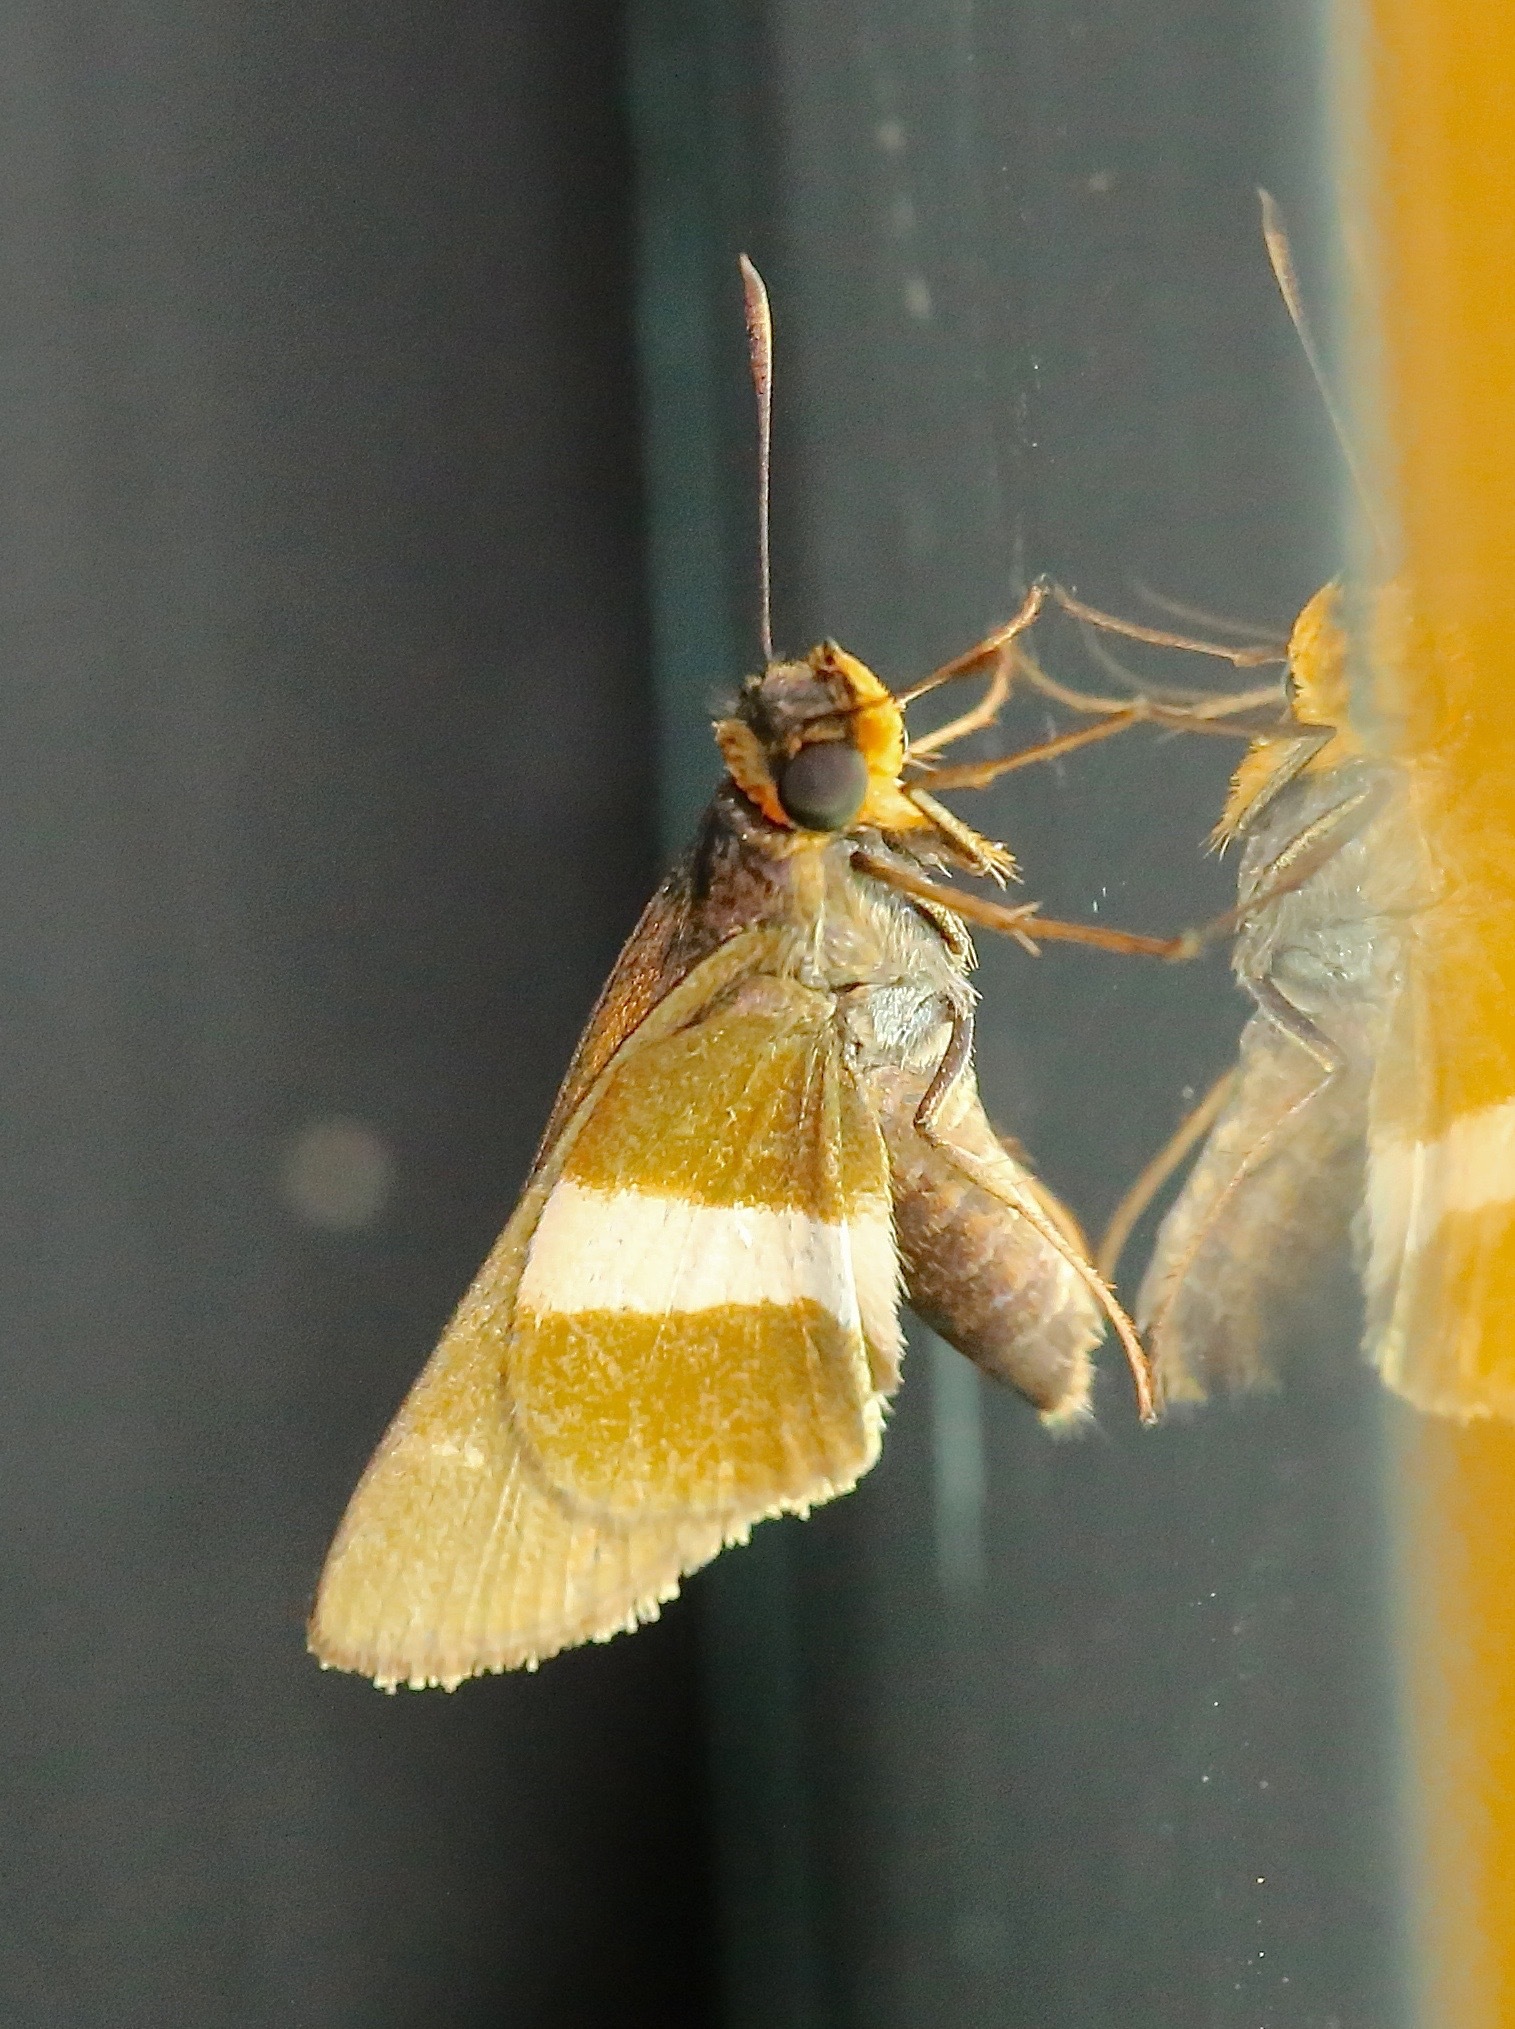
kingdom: Animalia
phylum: Arthropoda
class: Insecta
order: Lepidoptera
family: Hesperiidae
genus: Metron
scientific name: Metron chrysogastra
